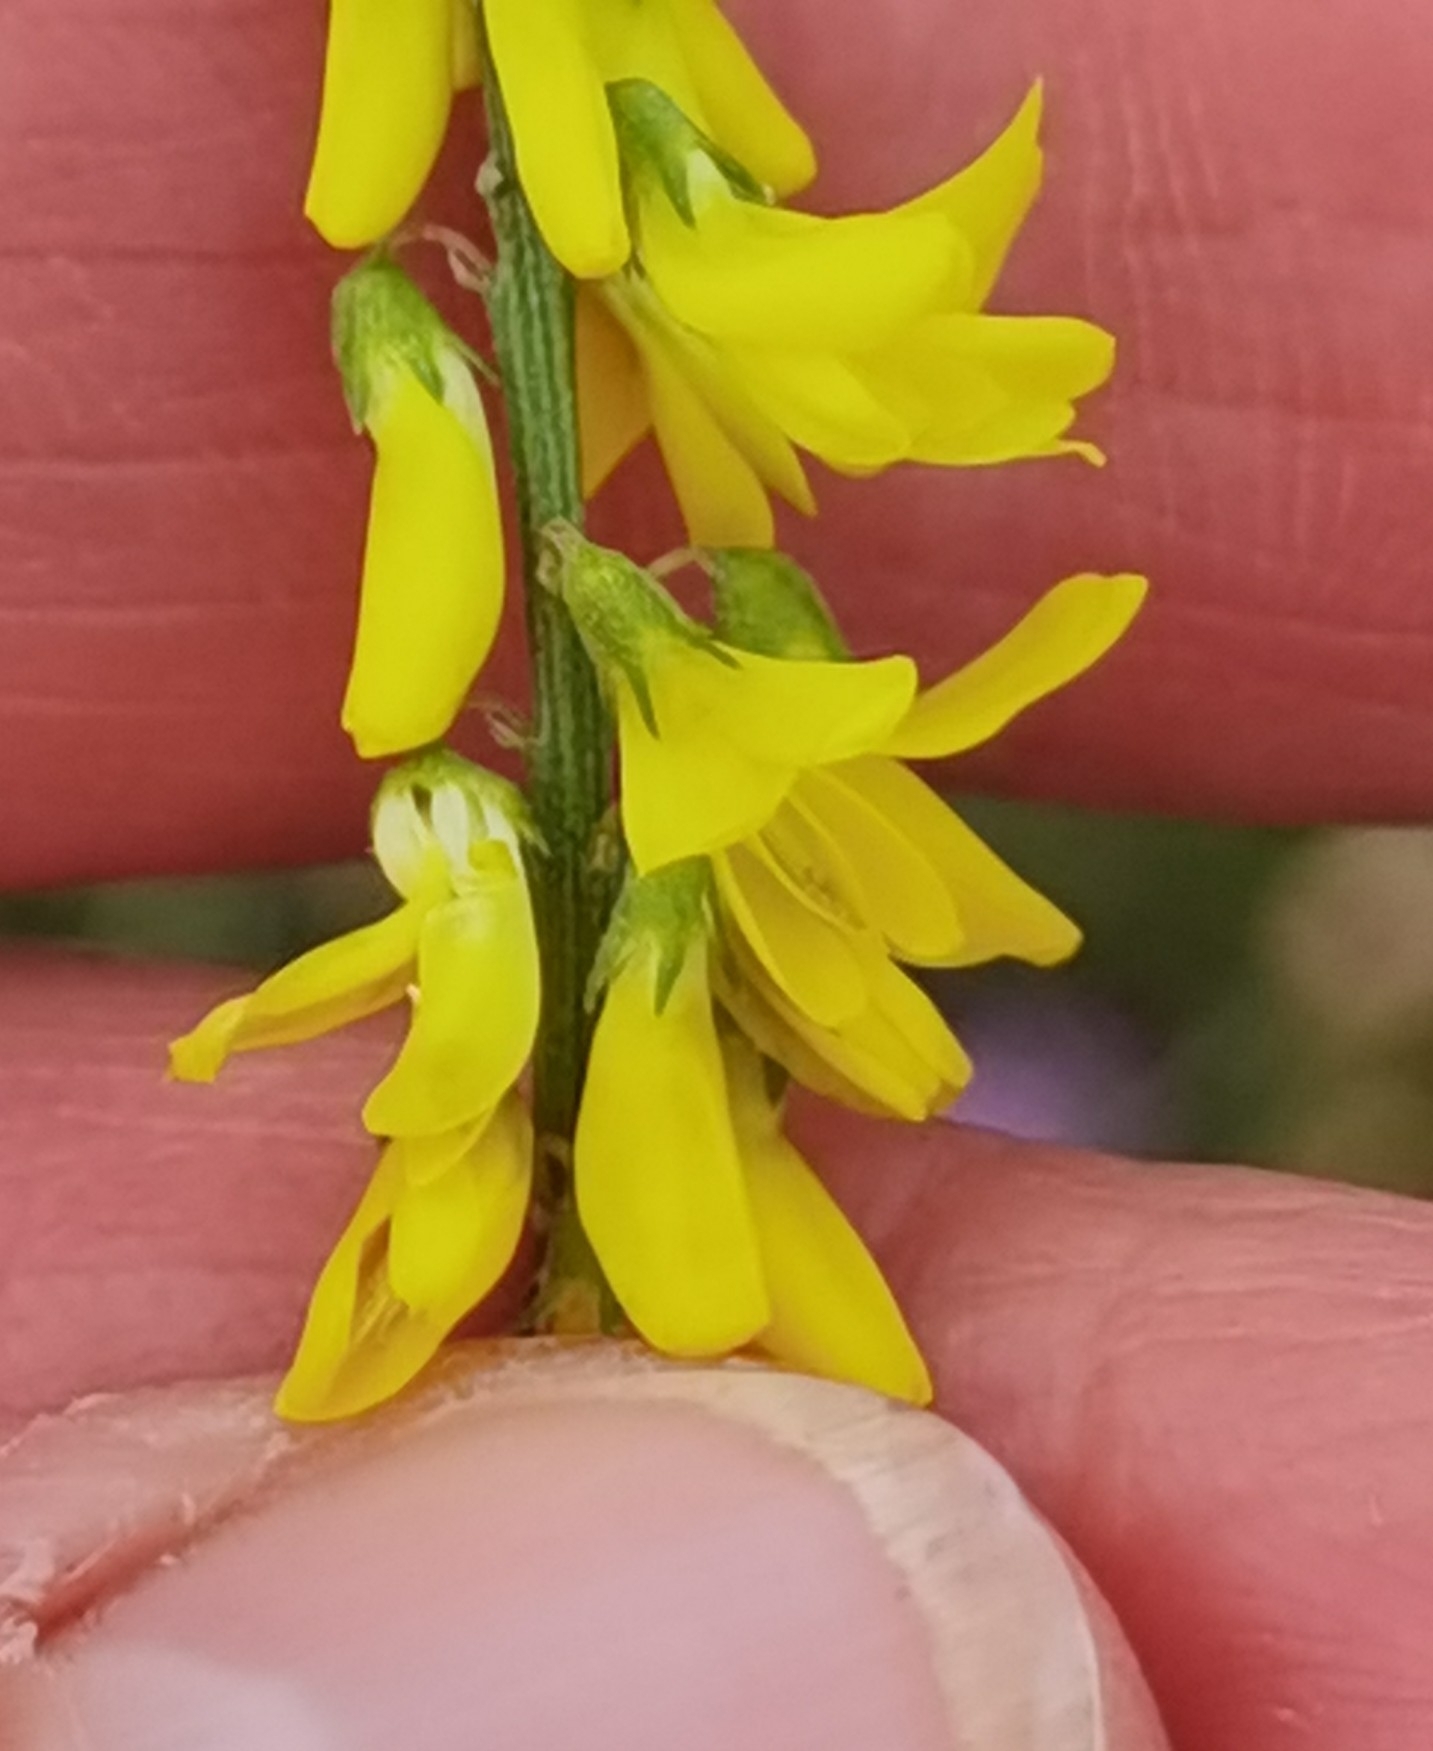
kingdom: Plantae
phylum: Tracheophyta
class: Magnoliopsida
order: Fabales
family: Fabaceae
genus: Melilotus
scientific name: Melilotus officinalis
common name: Sweetclover
